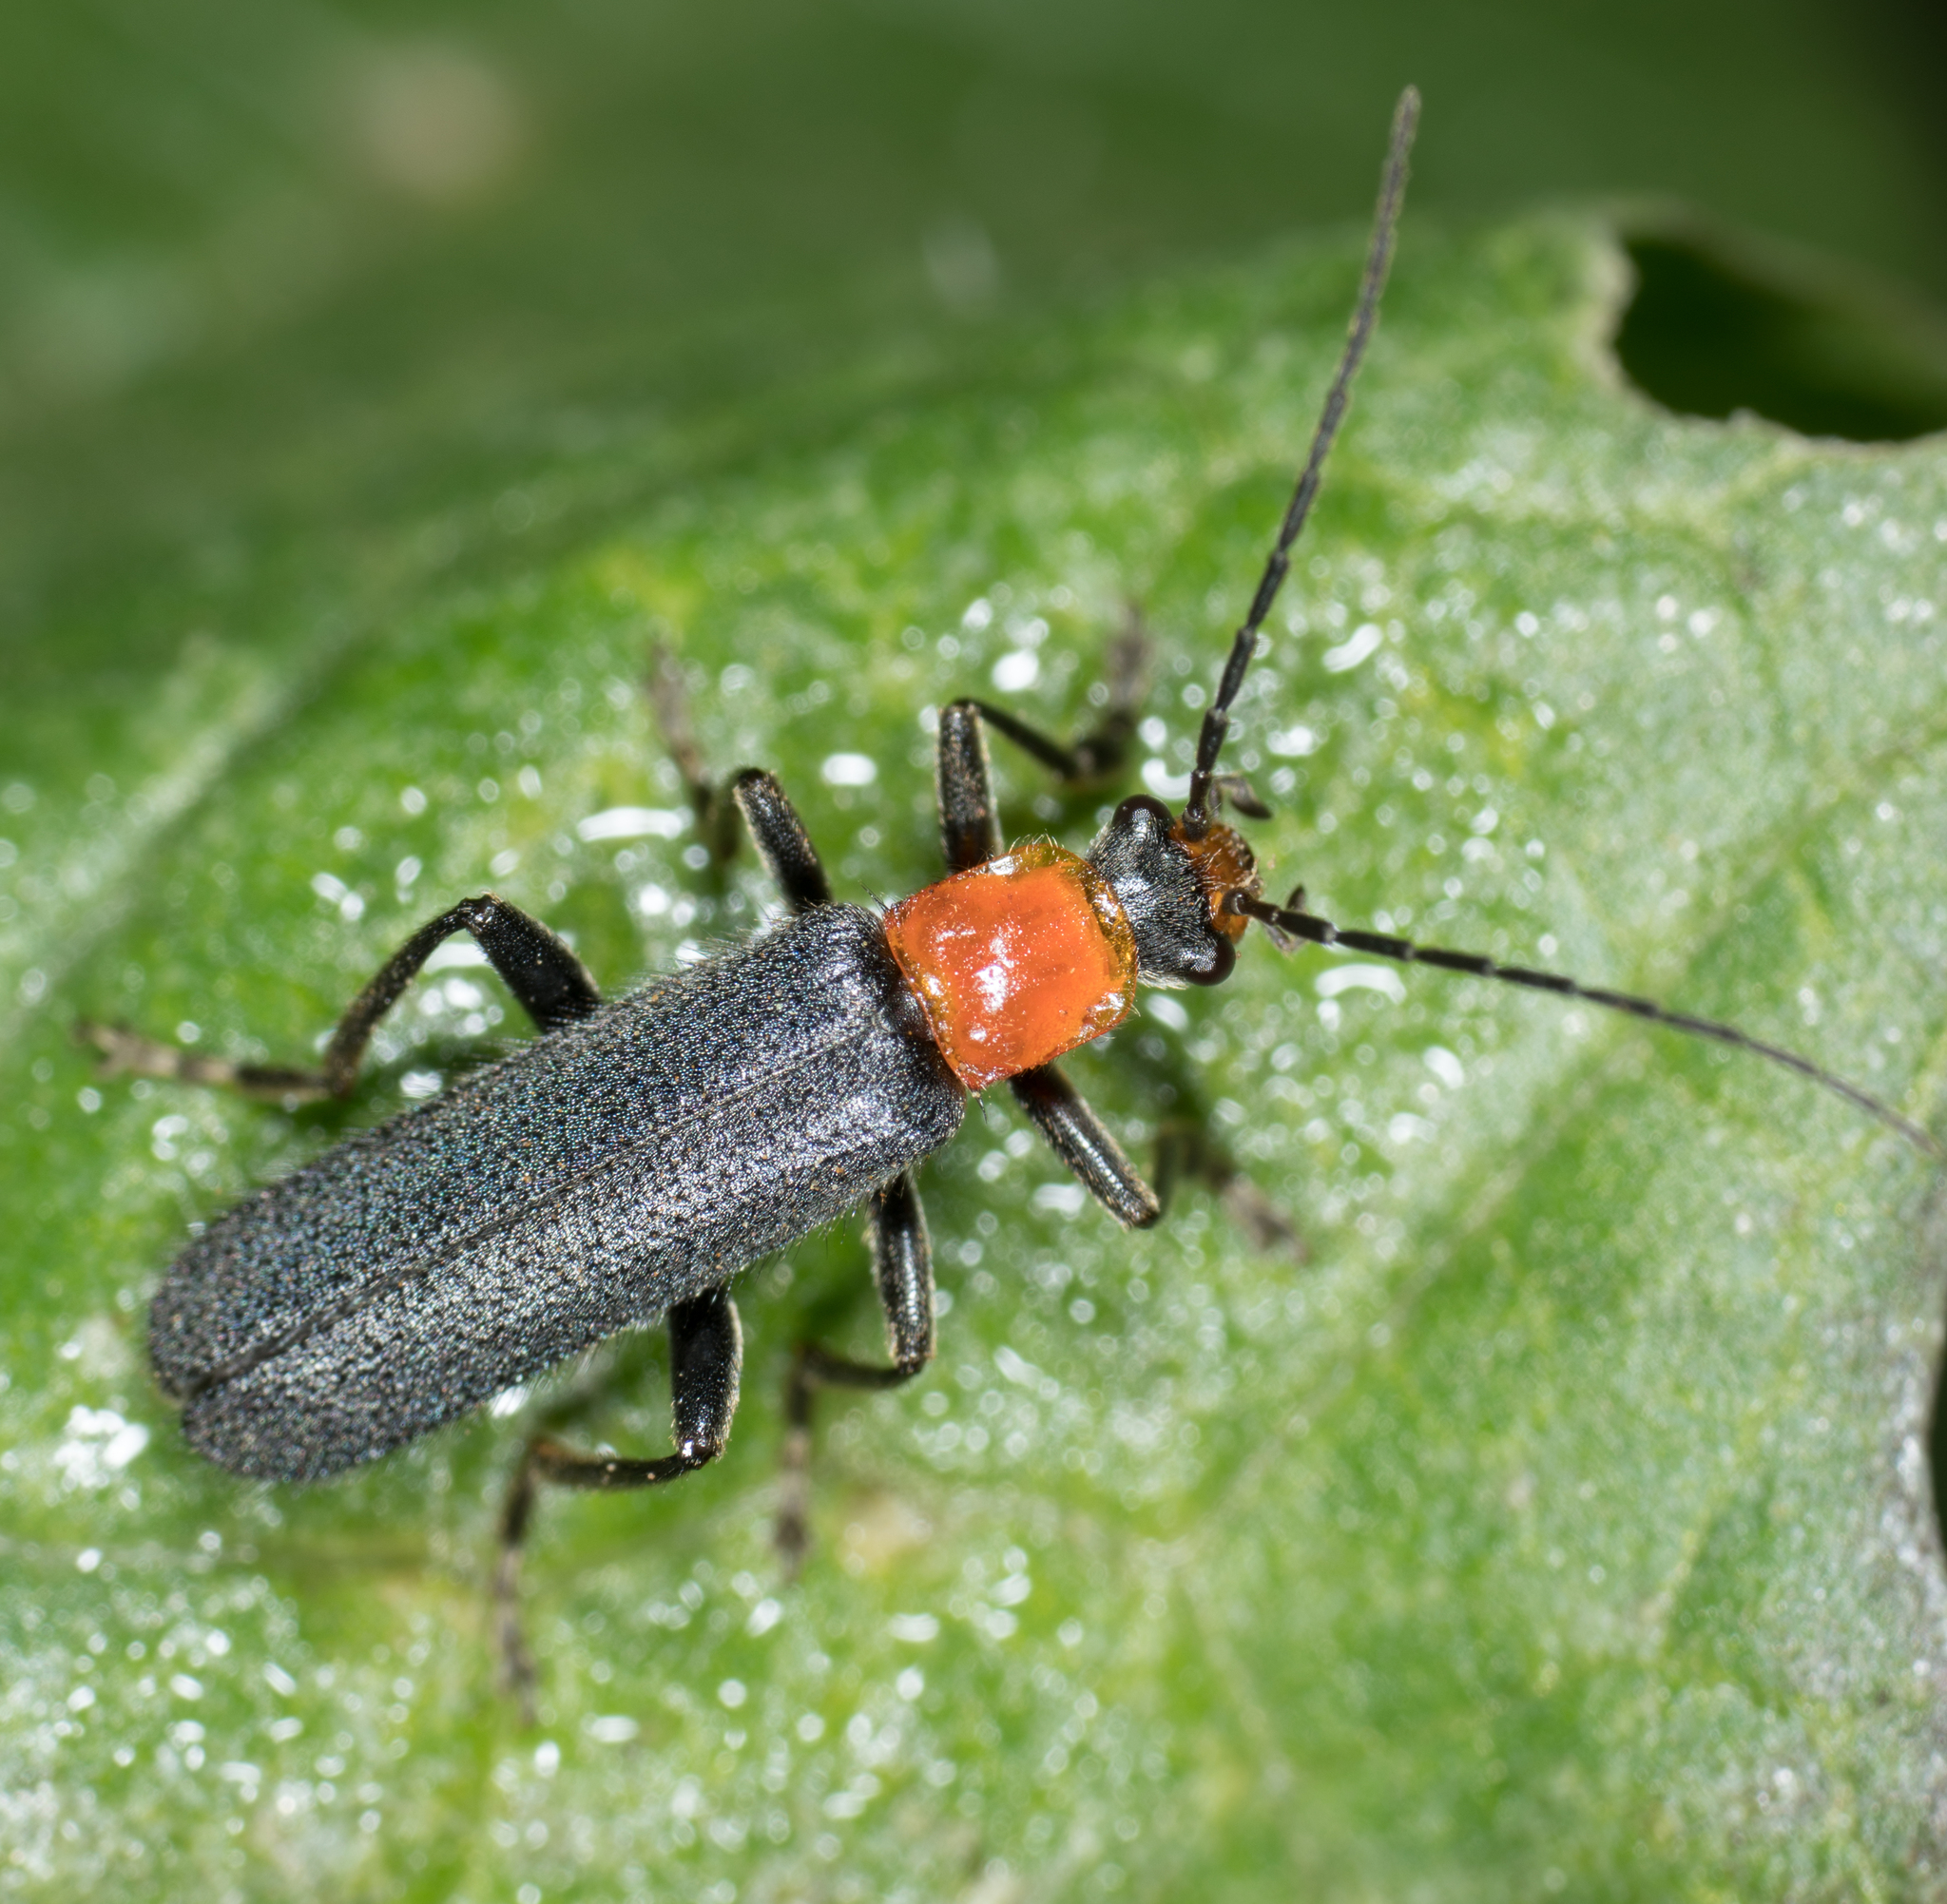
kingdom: Animalia
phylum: Arthropoda
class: Insecta
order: Coleoptera
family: Cantharidae
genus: Cultellunguis
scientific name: Cultellunguis ingenuus
